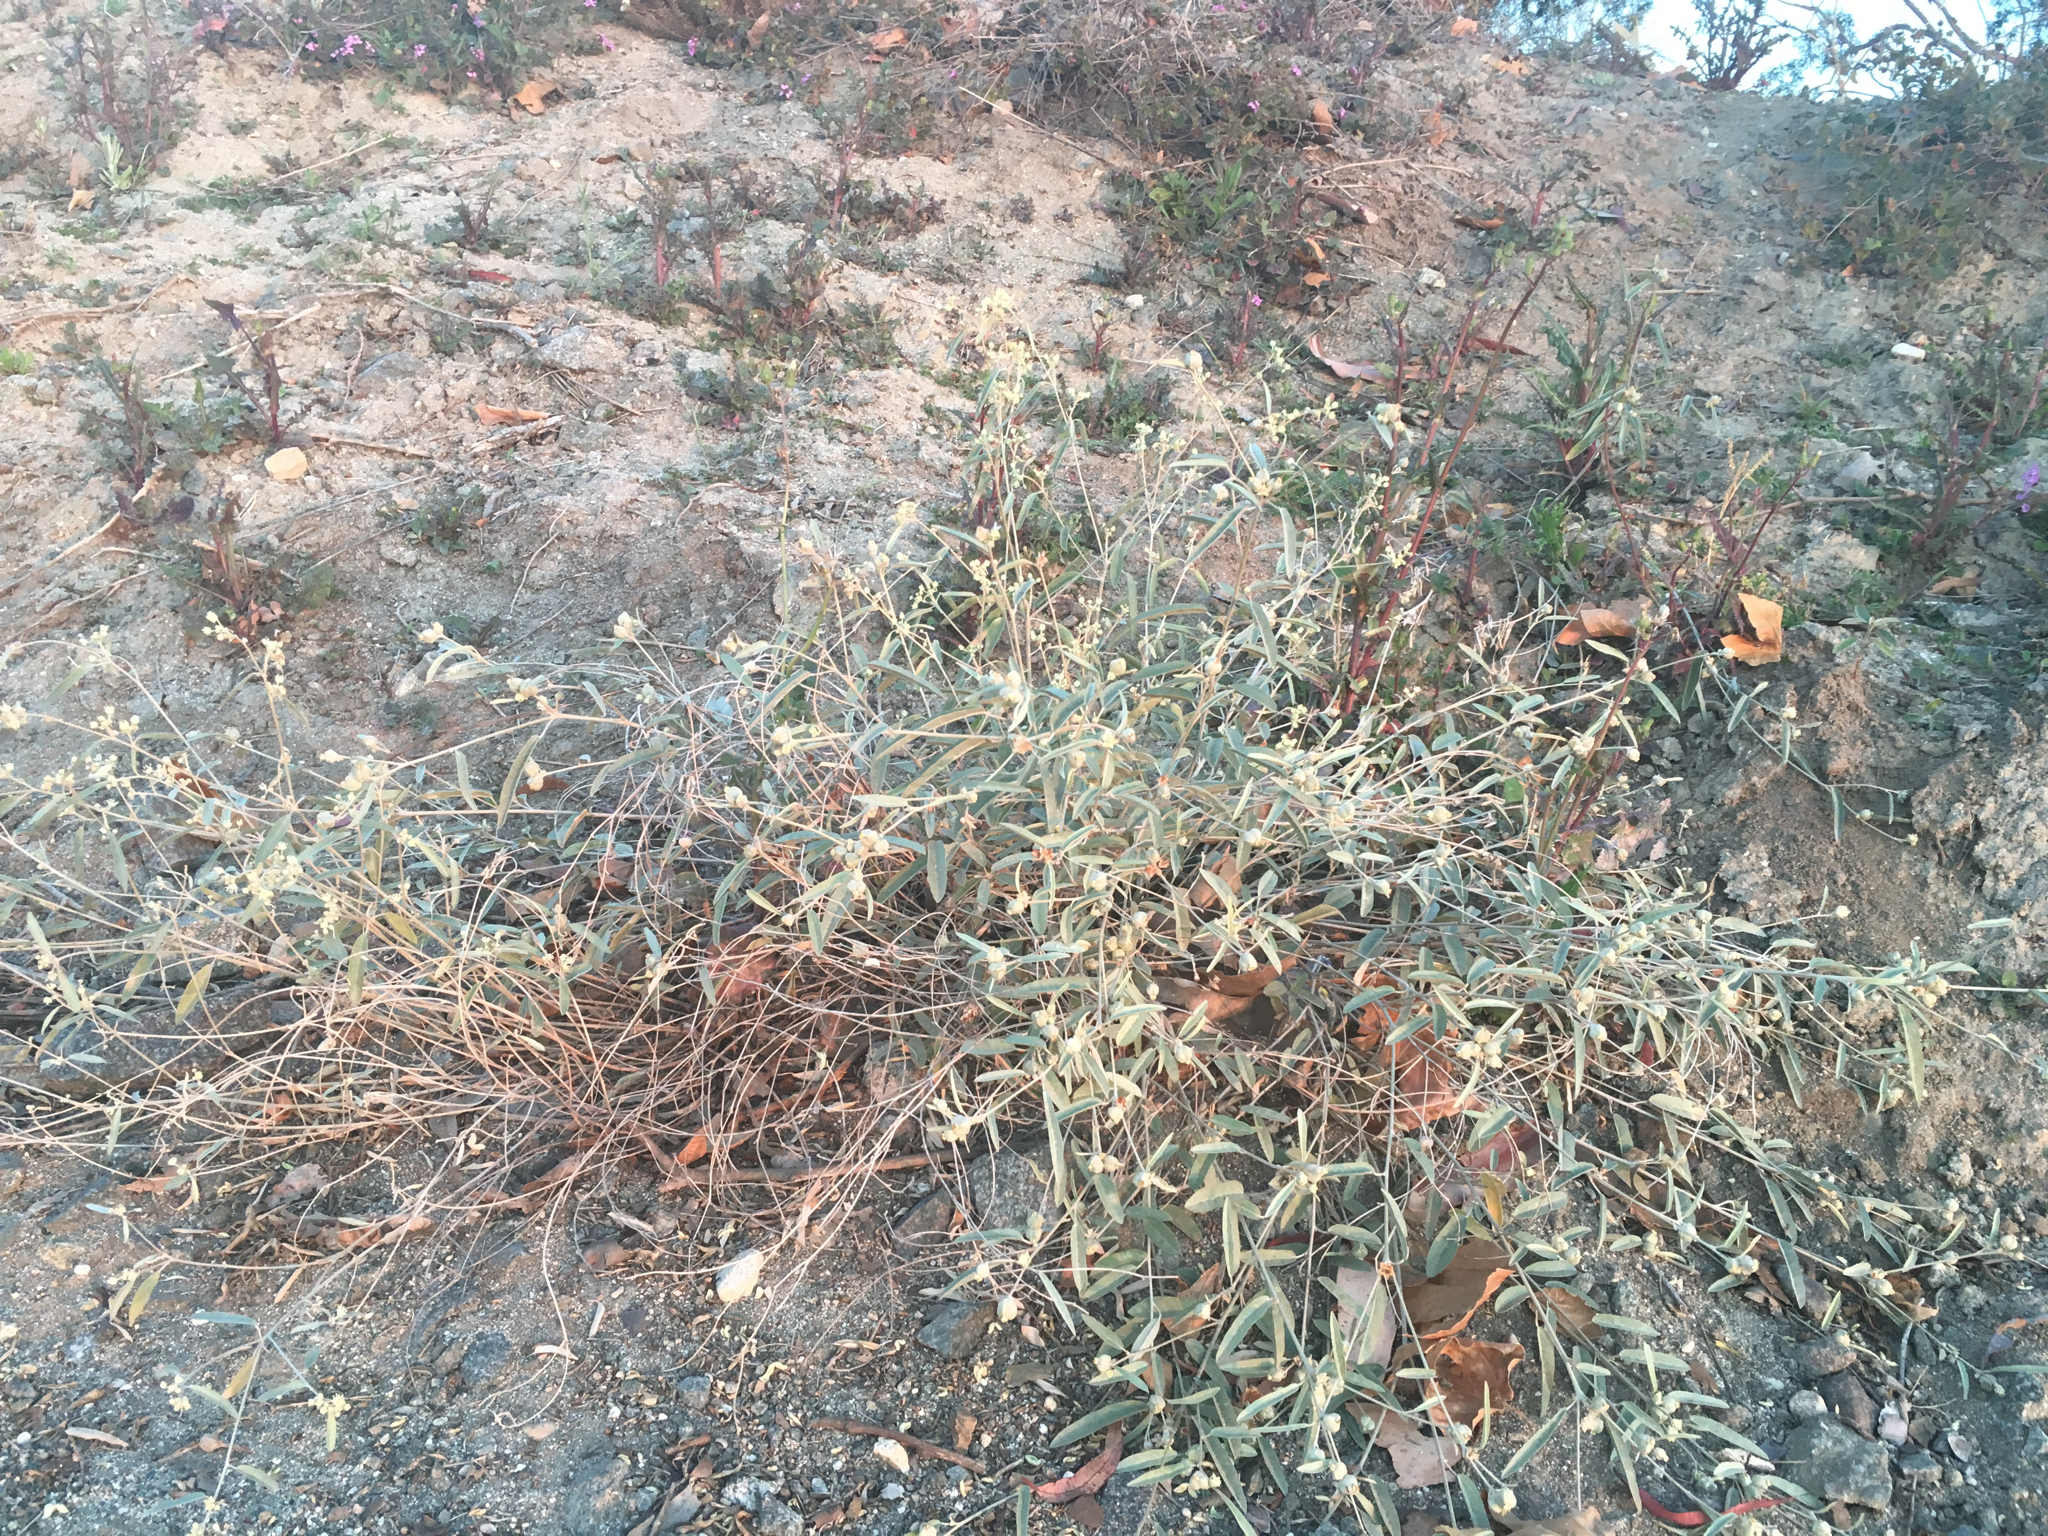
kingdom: Plantae
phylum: Tracheophyta
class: Magnoliopsida
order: Malpighiales
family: Euphorbiaceae
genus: Croton
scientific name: Croton californicus
